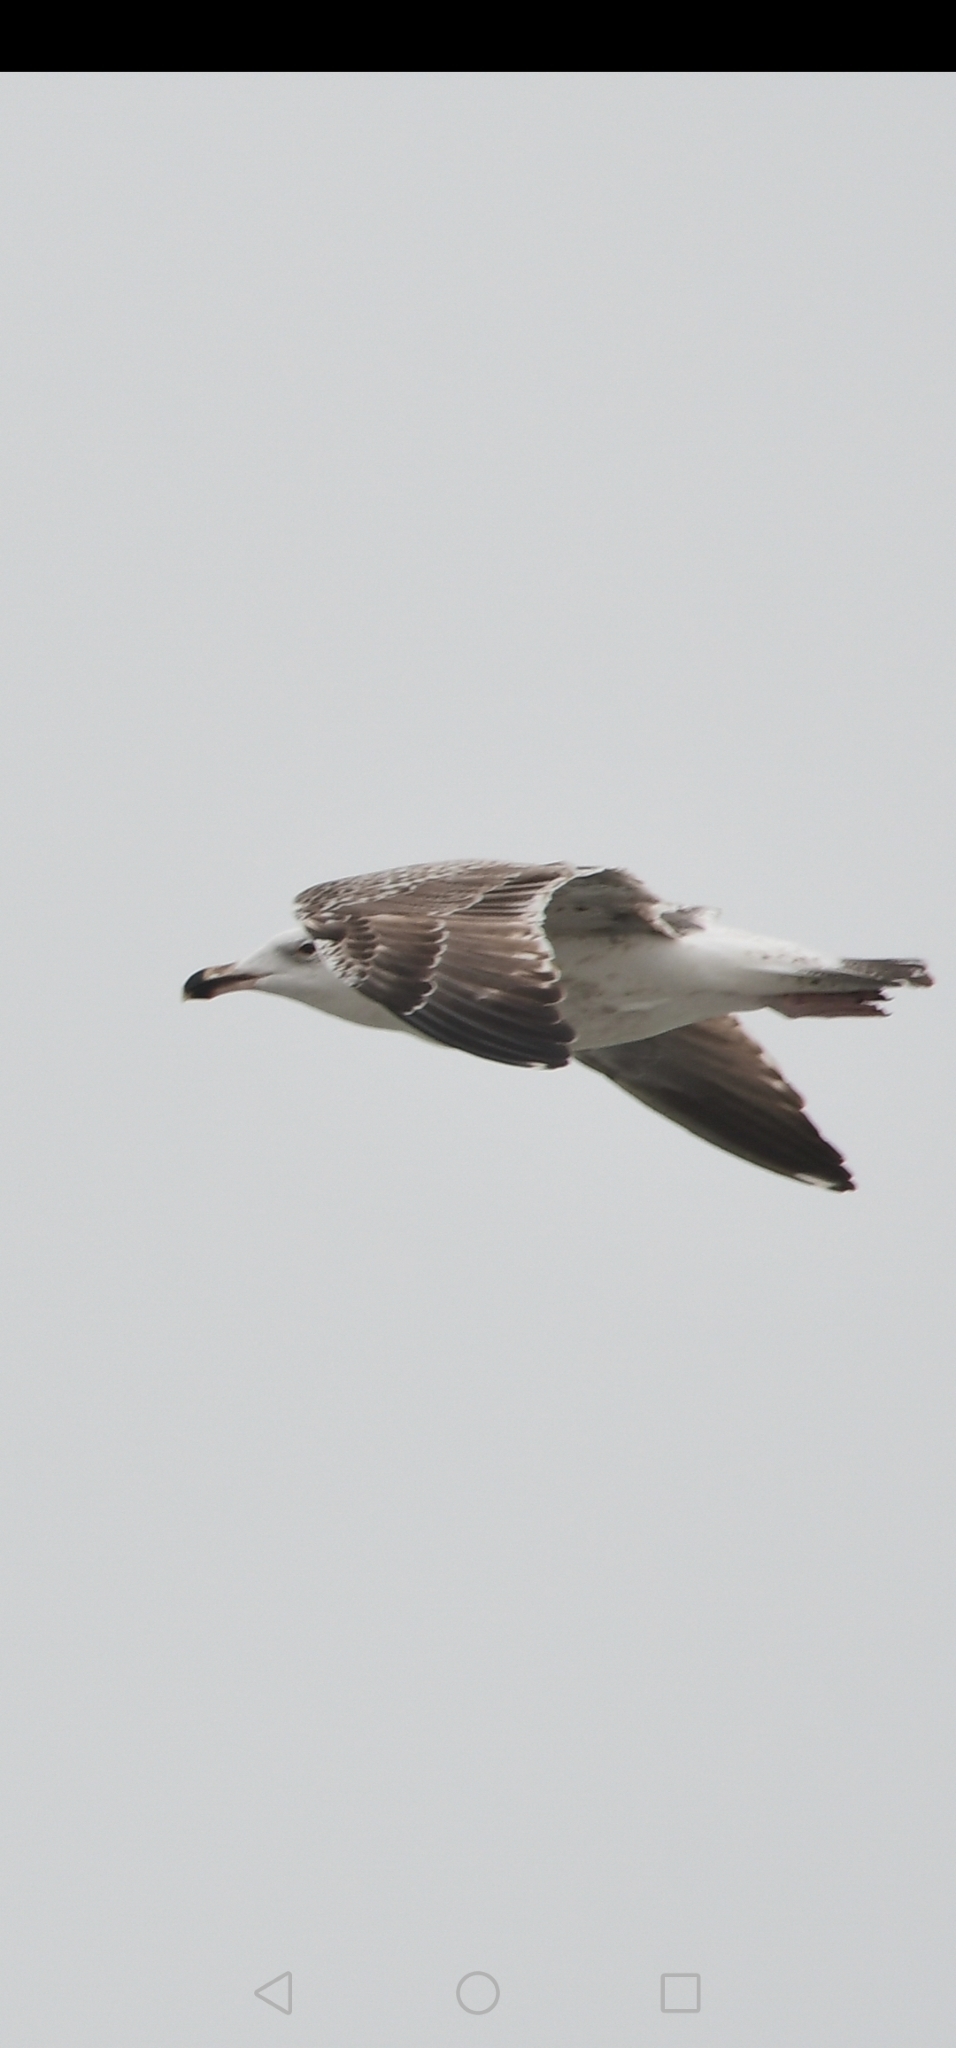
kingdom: Animalia
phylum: Chordata
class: Aves
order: Charadriiformes
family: Laridae
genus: Larus
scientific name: Larus marinus
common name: Great black-backed gull
